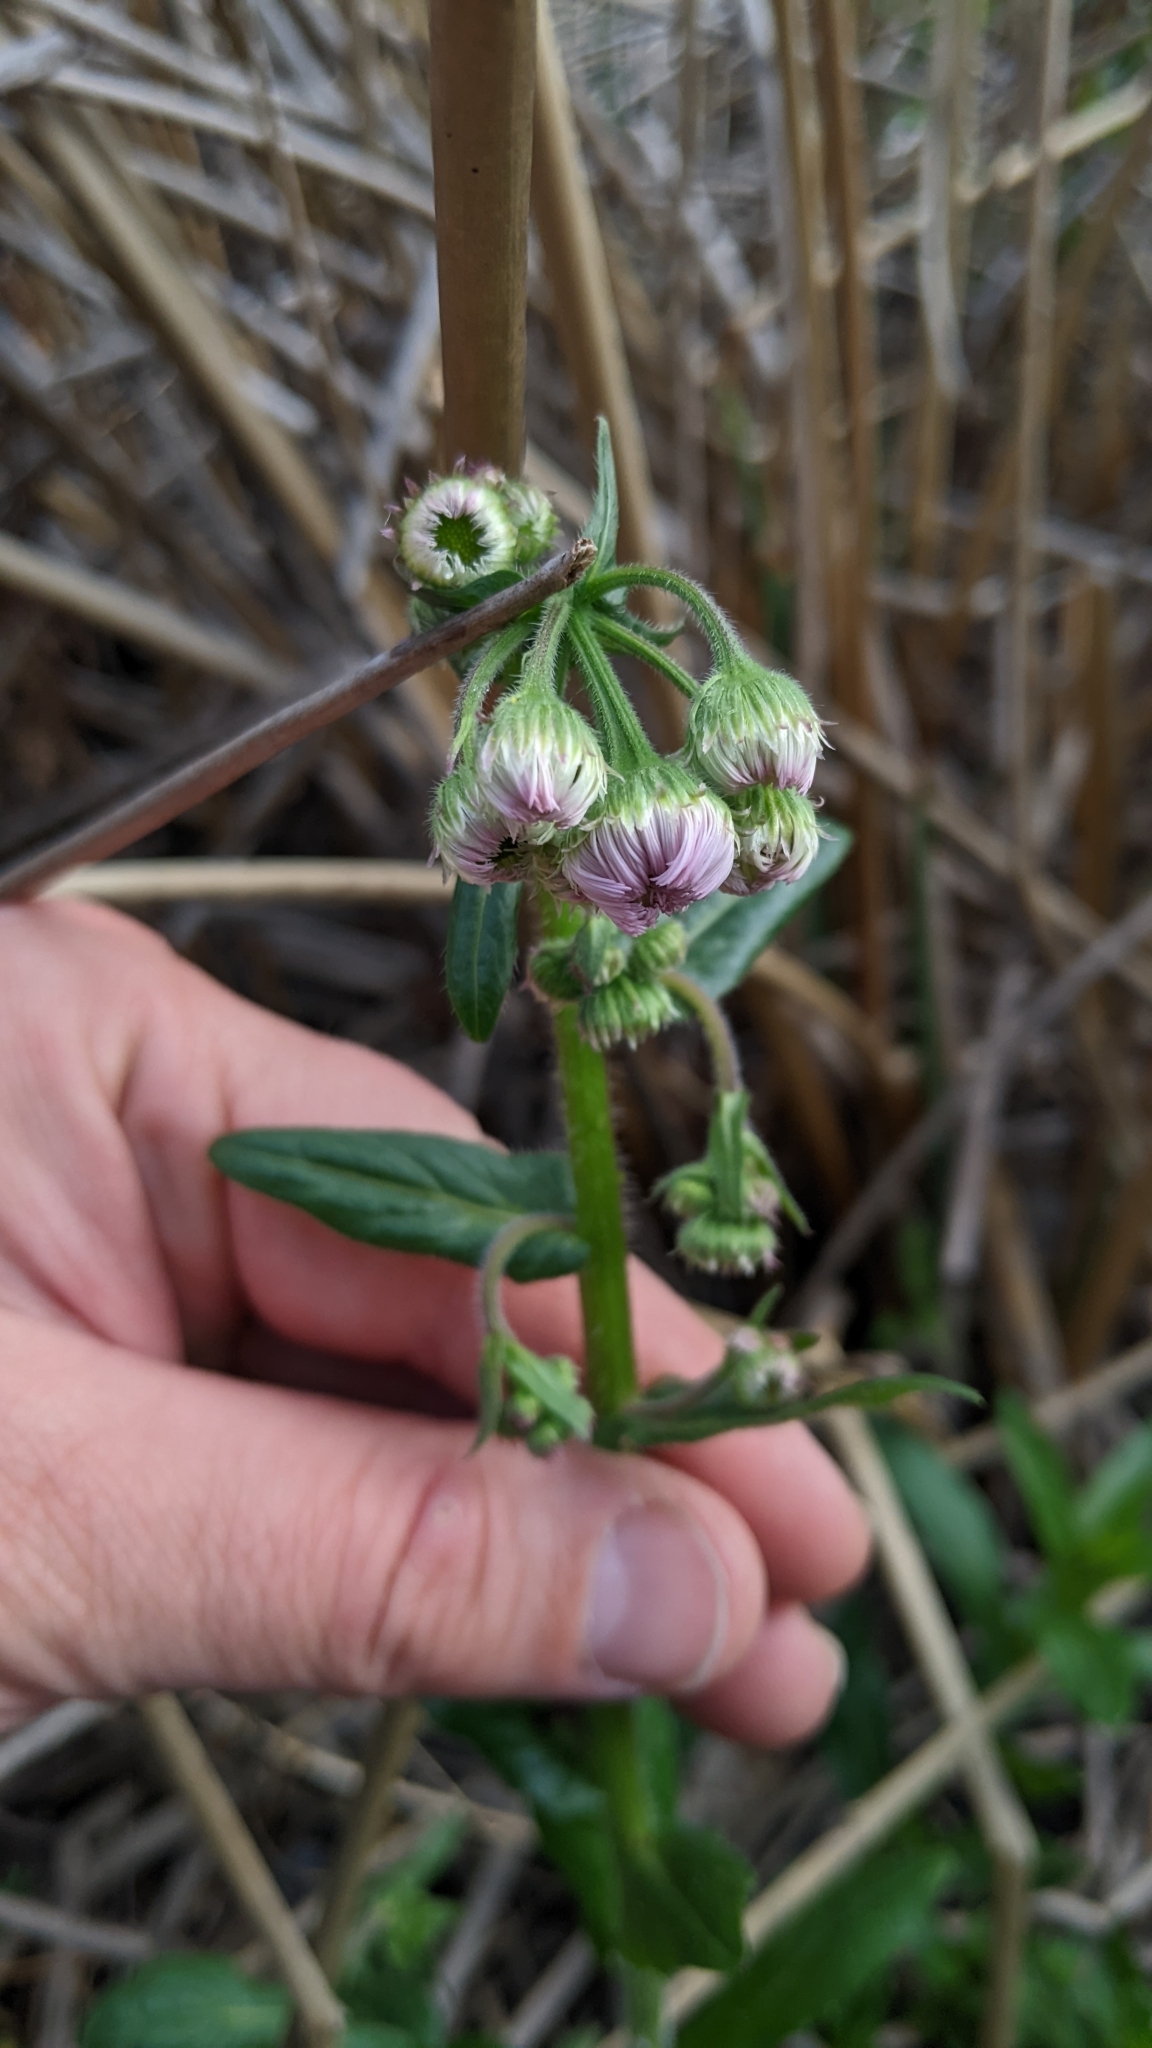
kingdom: Plantae
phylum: Tracheophyta
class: Magnoliopsida
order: Asterales
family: Asteraceae
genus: Erigeron
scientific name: Erigeron philadelphicus
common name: Robin's-plantain
